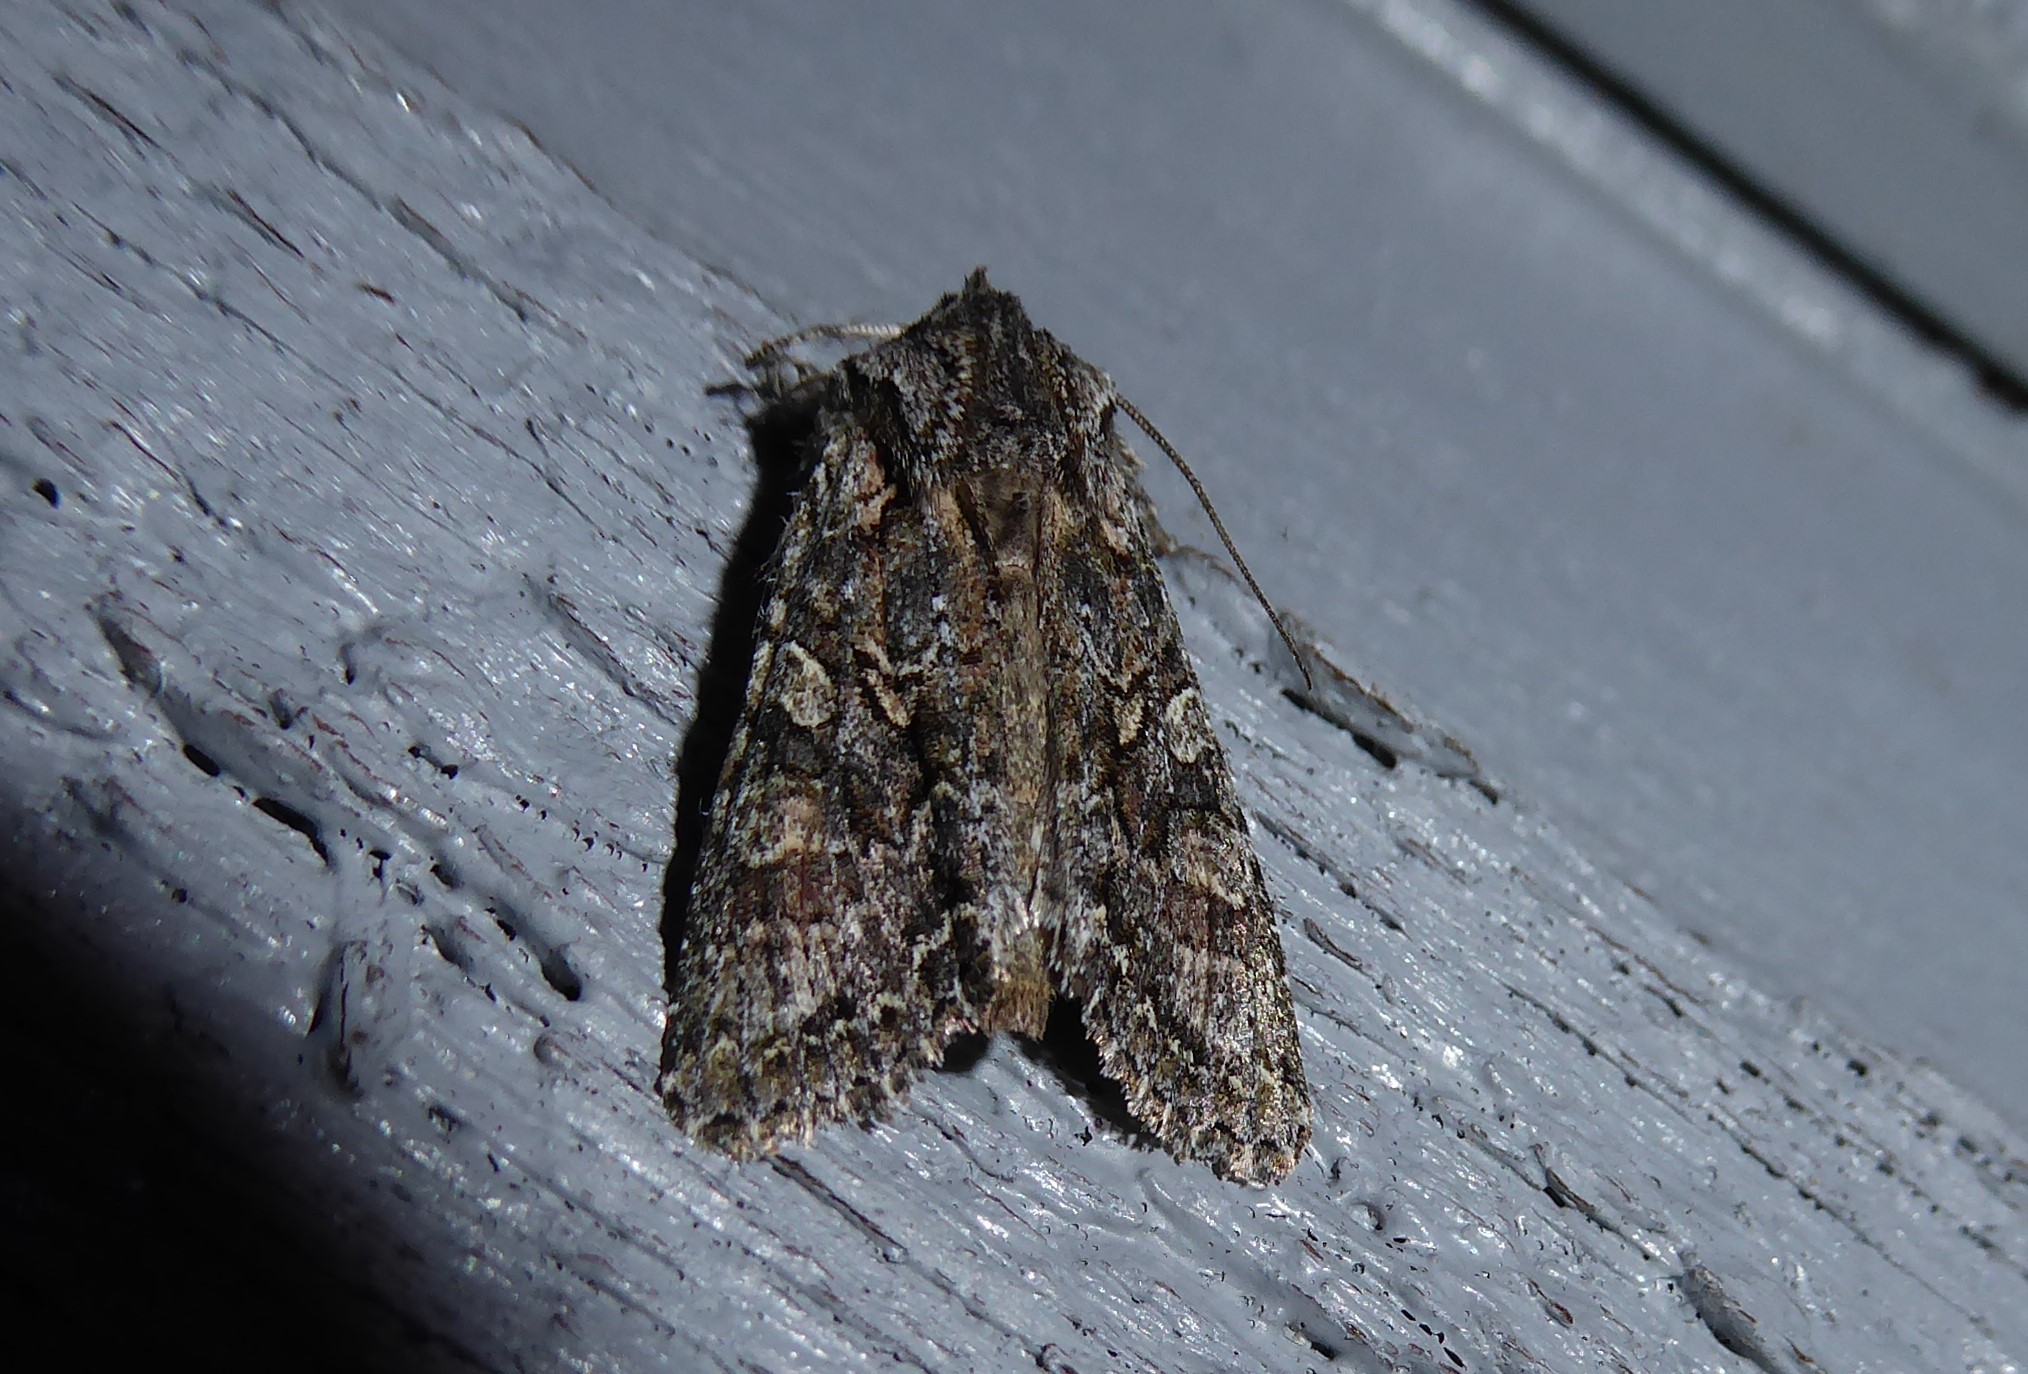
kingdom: Animalia
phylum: Arthropoda
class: Insecta
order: Lepidoptera
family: Noctuidae
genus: Ichneutica
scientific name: Ichneutica mutans
